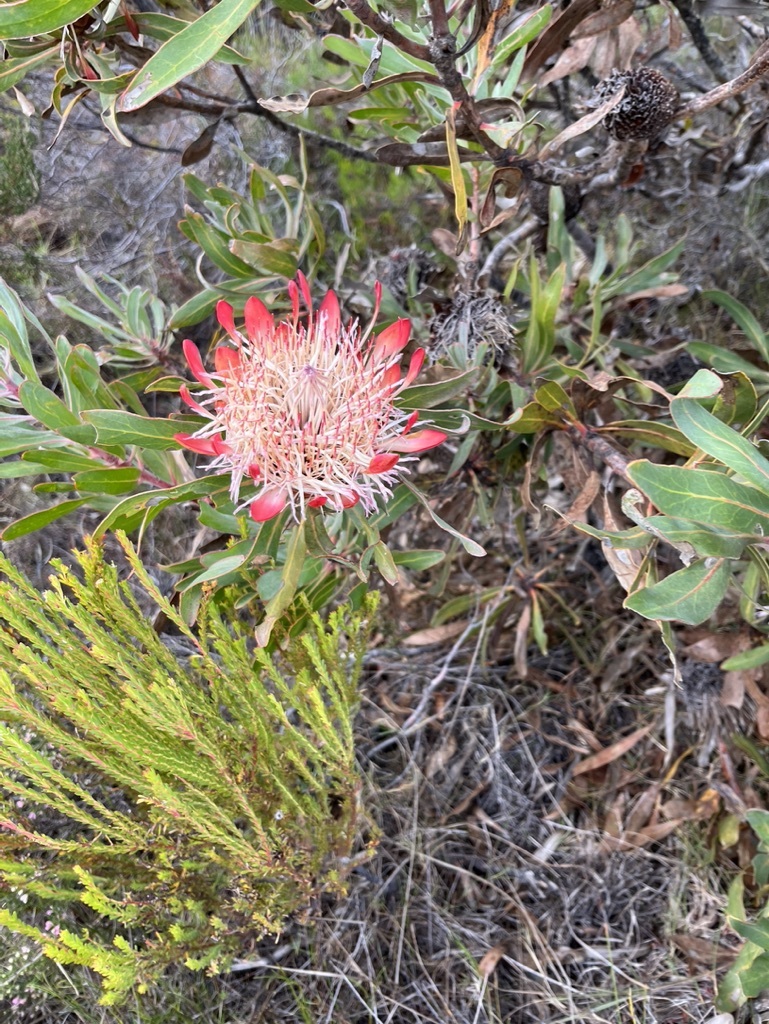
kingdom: Plantae
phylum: Tracheophyta
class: Magnoliopsida
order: Proteales
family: Proteaceae
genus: Protea
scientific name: Protea susannae
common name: Foetid-leaf sugarbush
